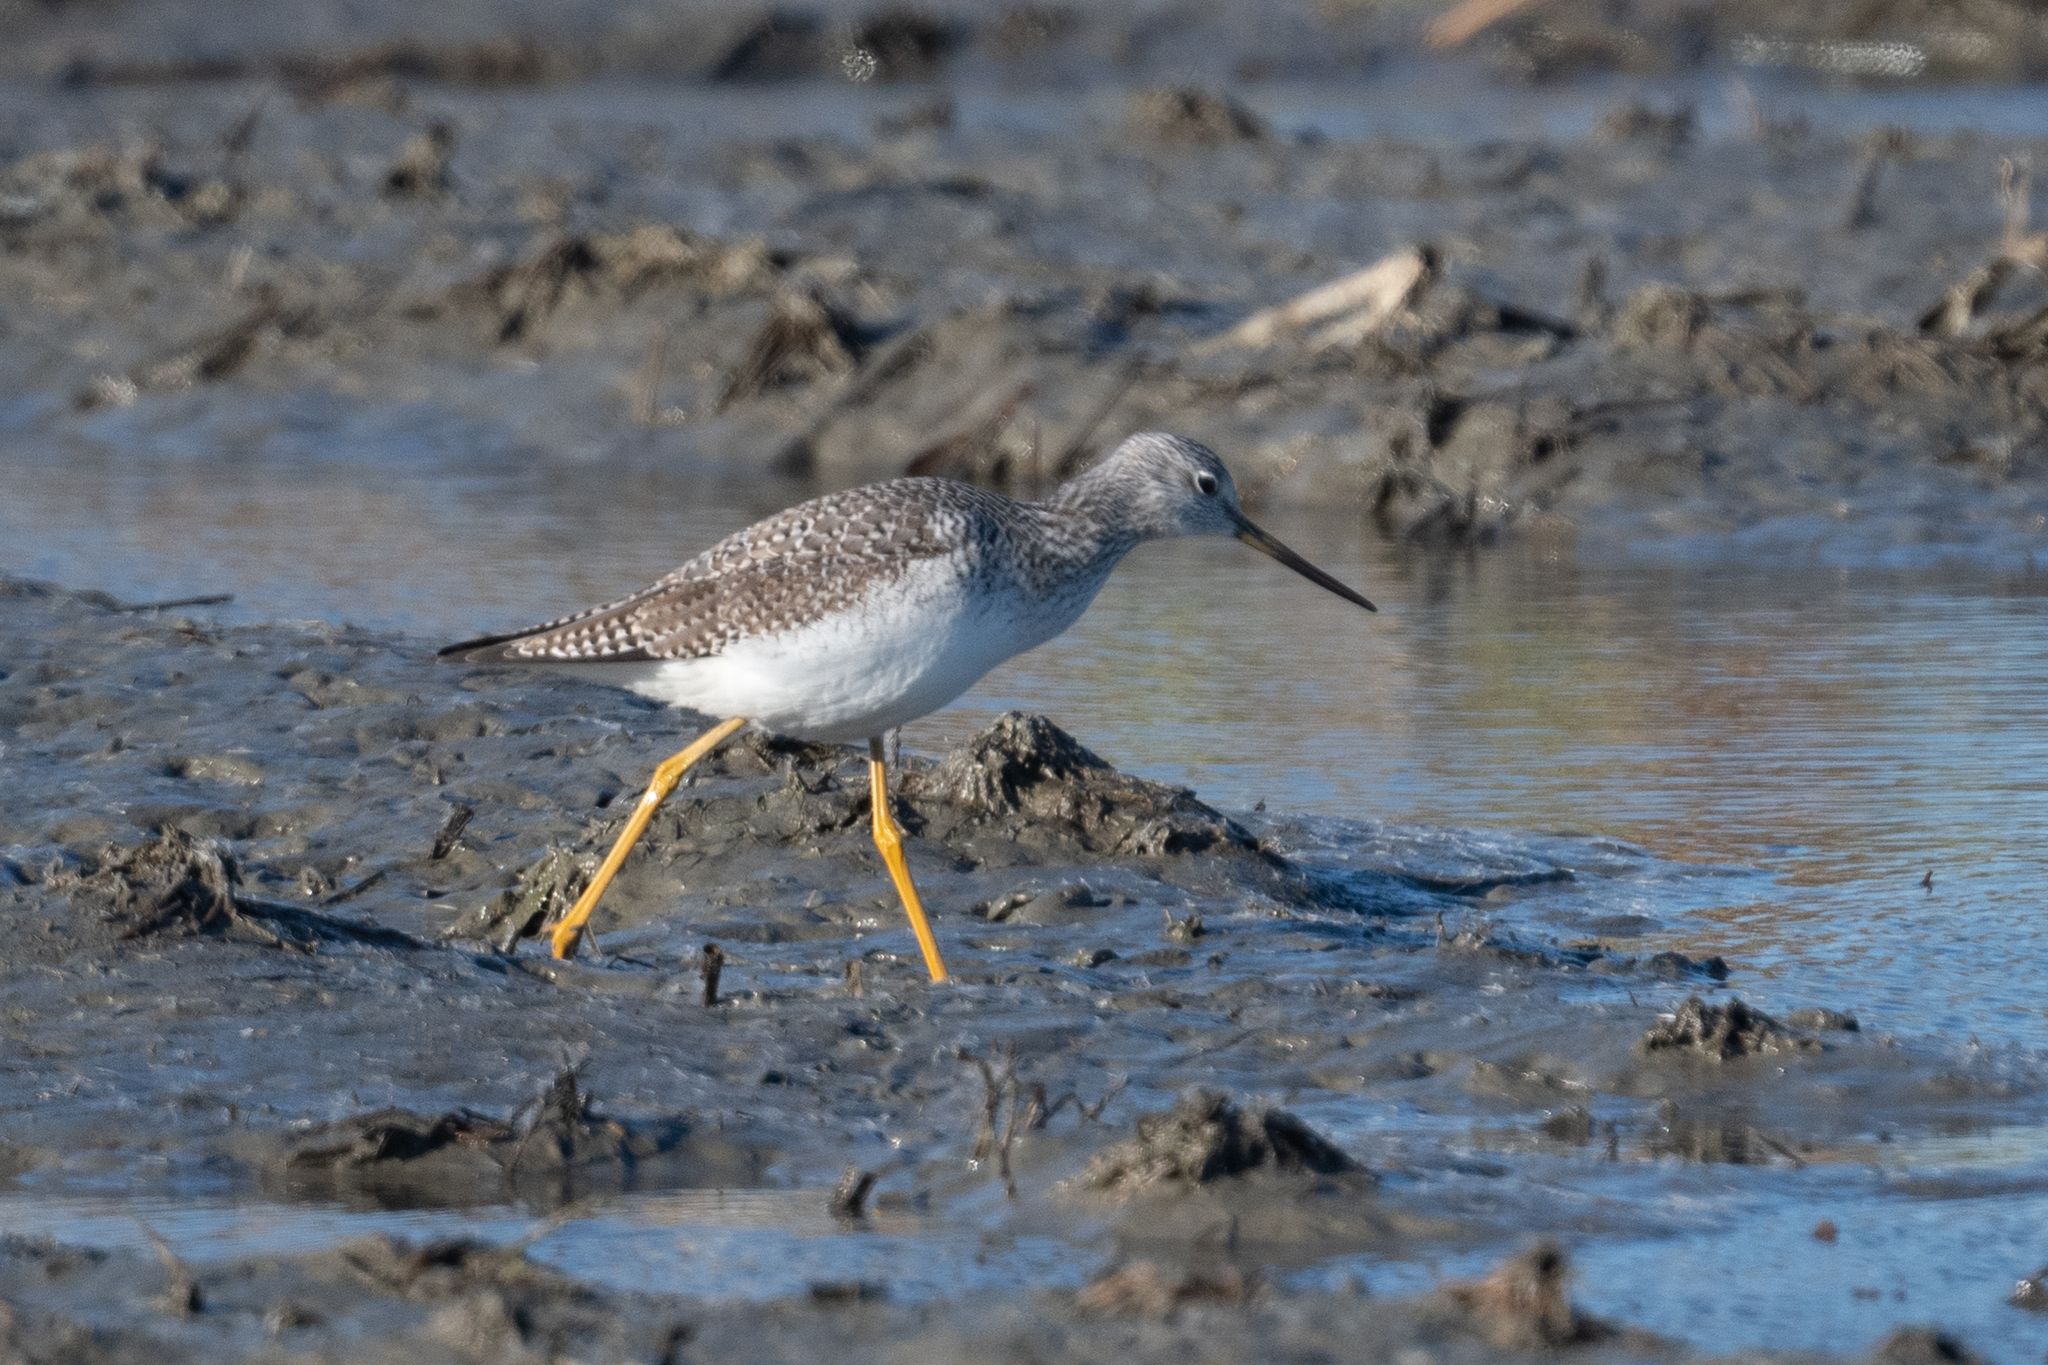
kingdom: Animalia
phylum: Chordata
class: Aves
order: Charadriiformes
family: Scolopacidae
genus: Tringa
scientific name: Tringa melanoleuca
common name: Greater yellowlegs
